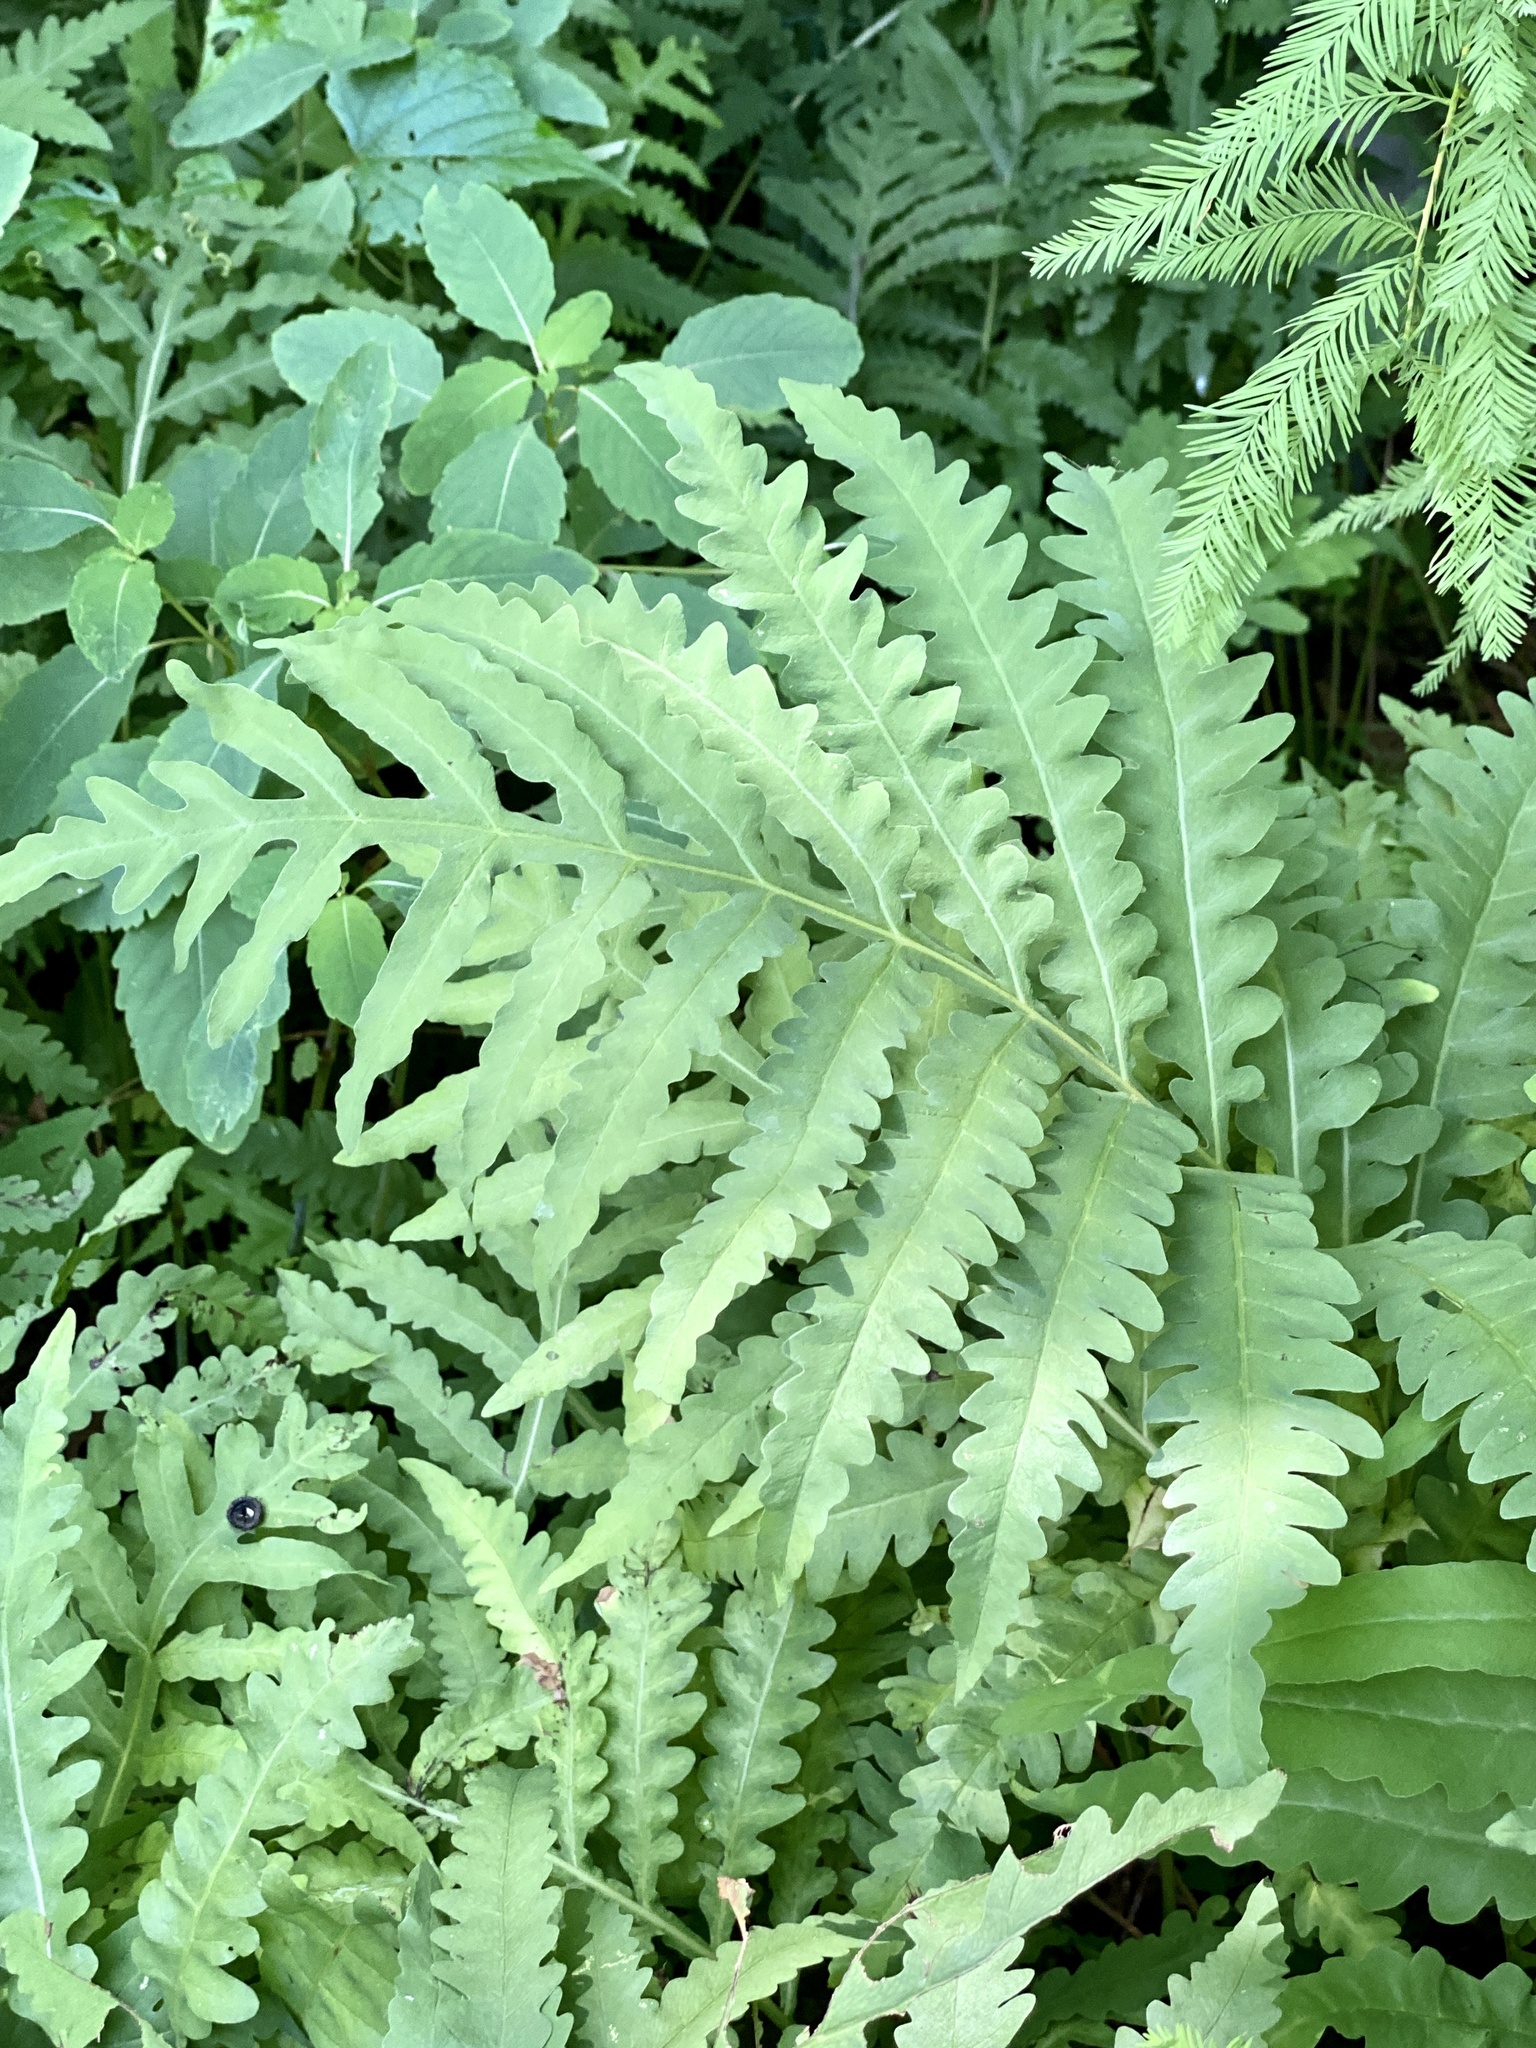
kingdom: Plantae
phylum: Tracheophyta
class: Polypodiopsida
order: Polypodiales
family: Onocleaceae
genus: Onoclea
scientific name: Onoclea sensibilis
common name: Sensitive fern
